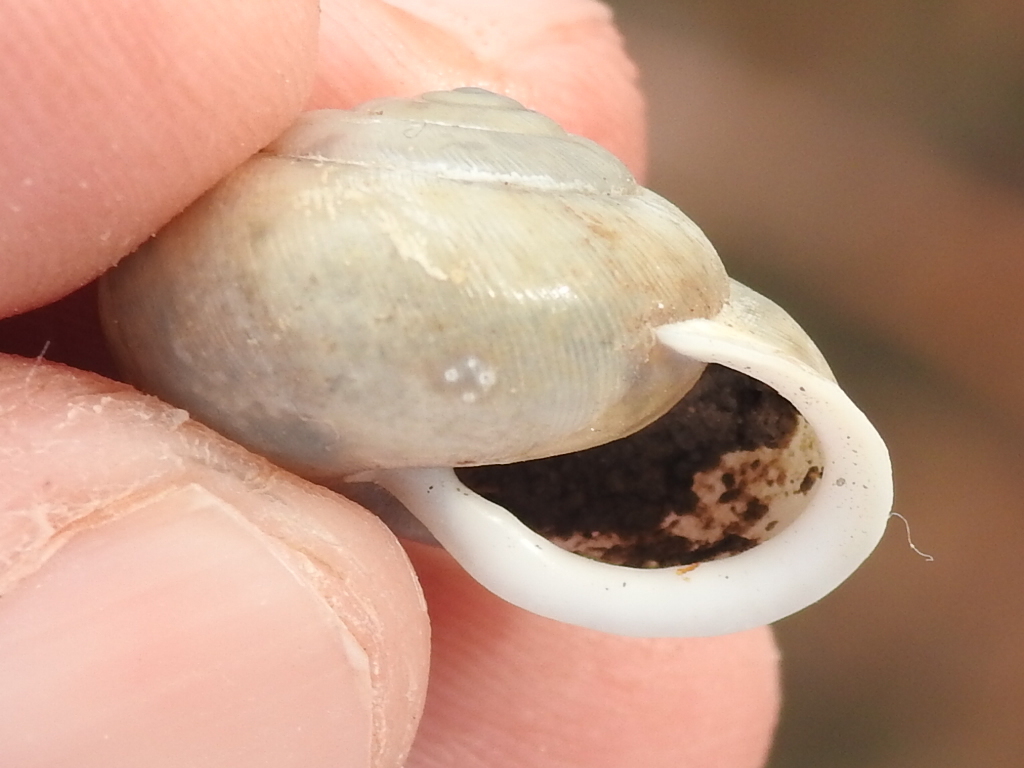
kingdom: Animalia
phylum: Mollusca
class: Gastropoda
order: Stylommatophora
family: Polygyridae
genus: Patera
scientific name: Patera roemeri
